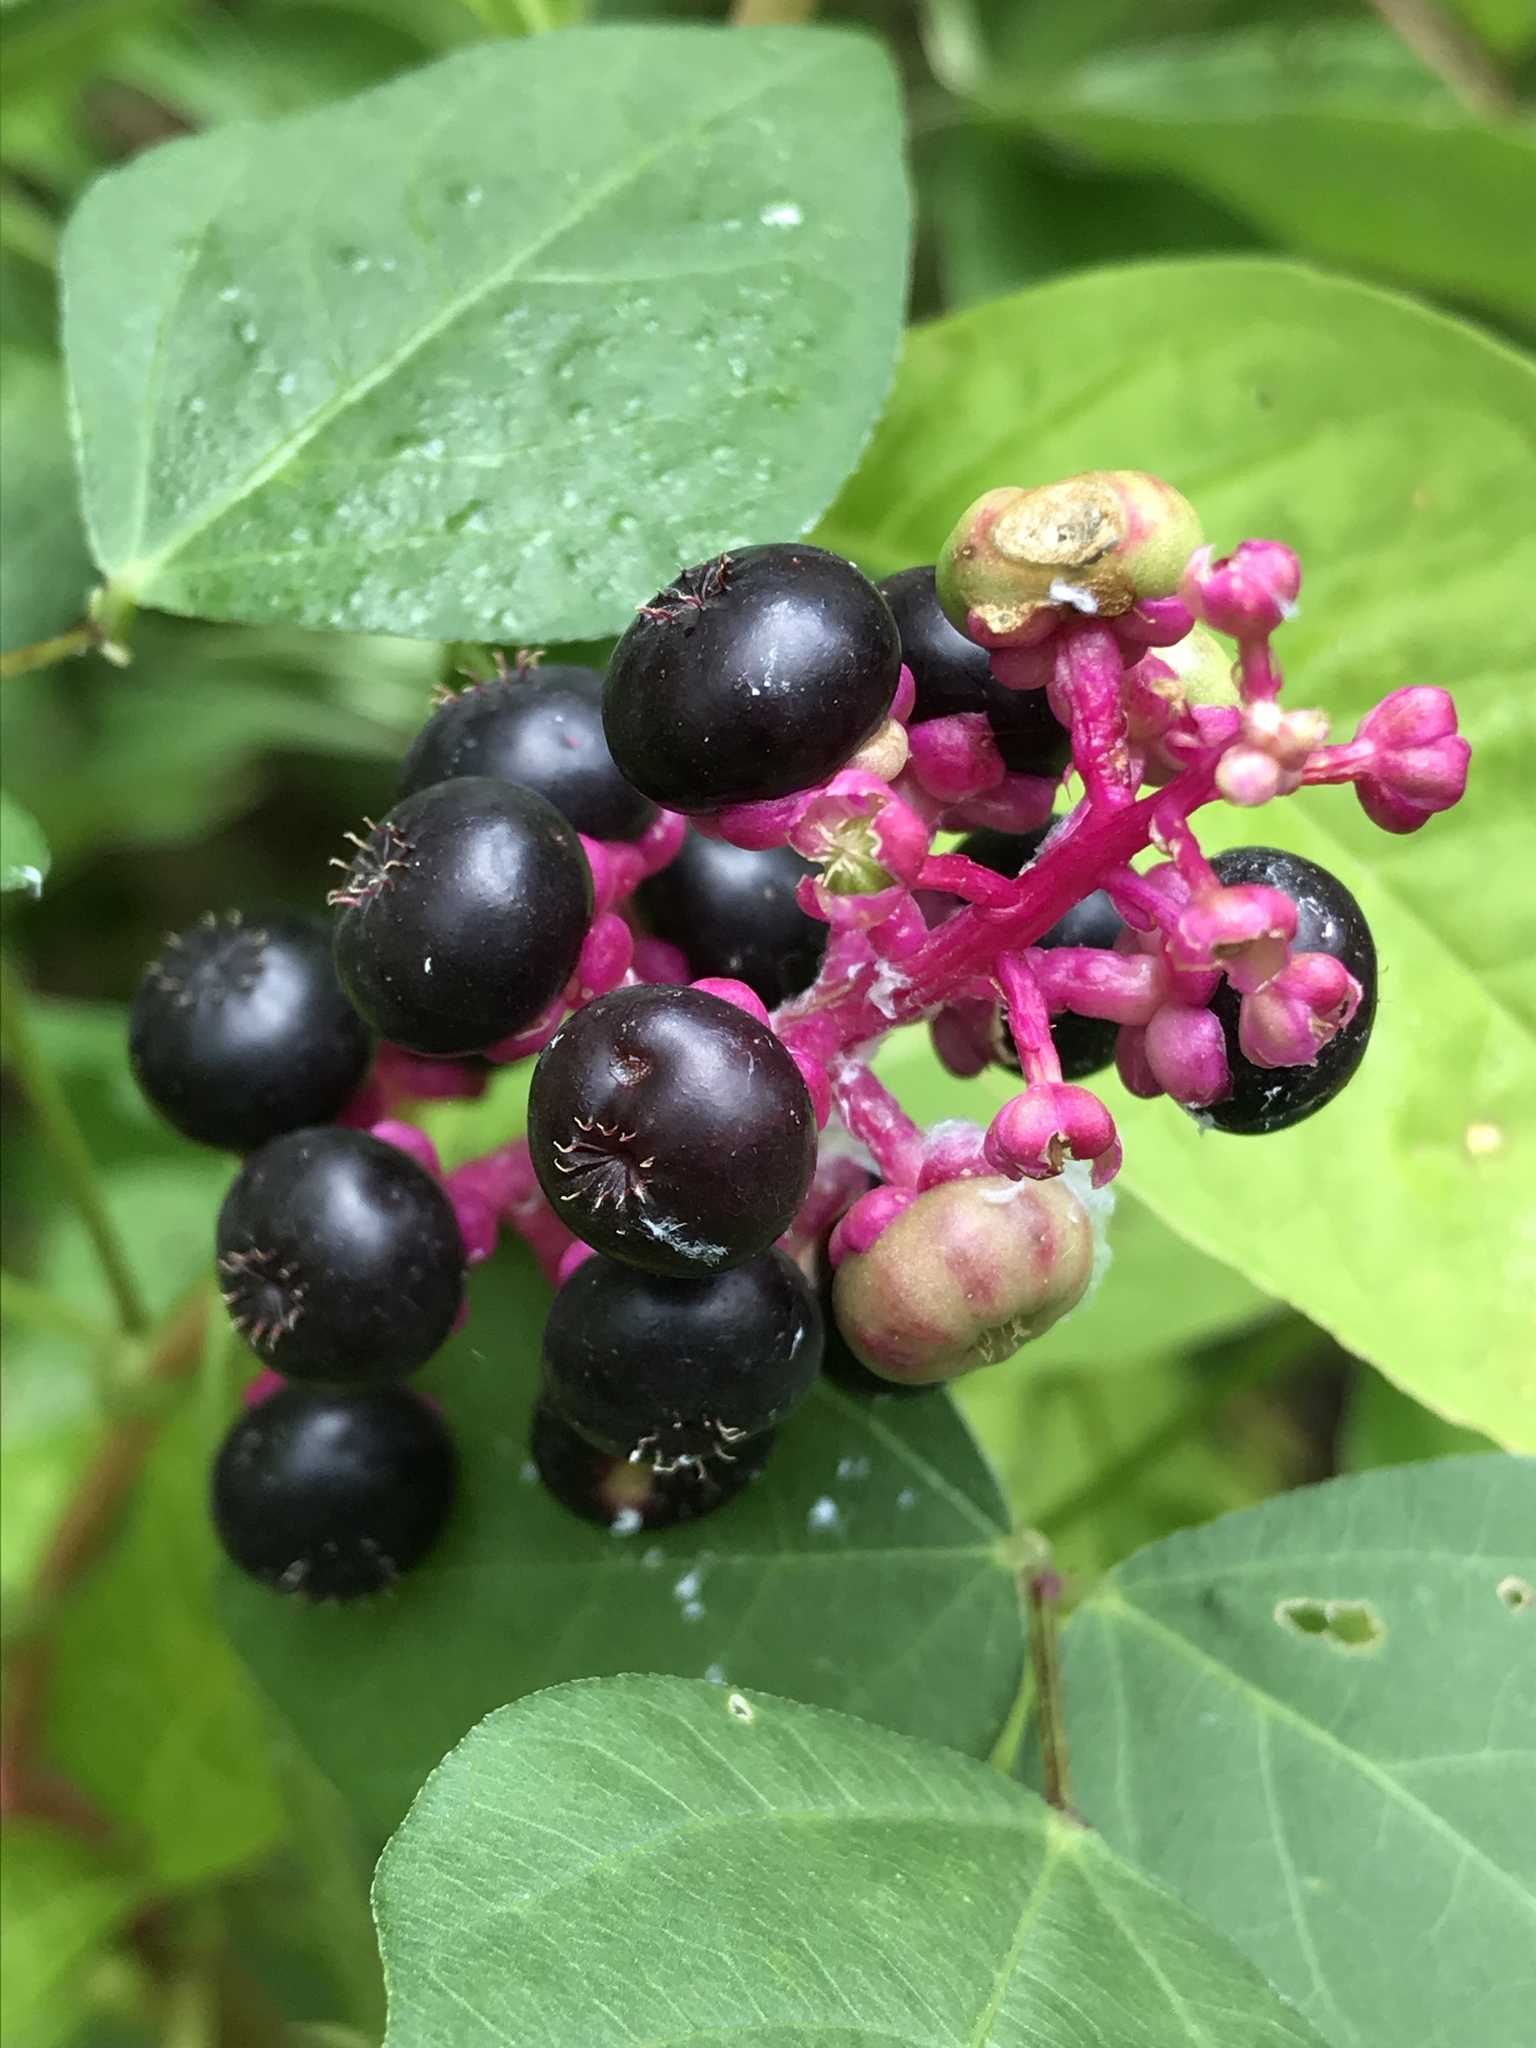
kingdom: Plantae
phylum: Tracheophyta
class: Magnoliopsida
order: Caryophyllales
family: Phytolaccaceae
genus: Phytolacca
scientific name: Phytolacca americana
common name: American pokeweed
